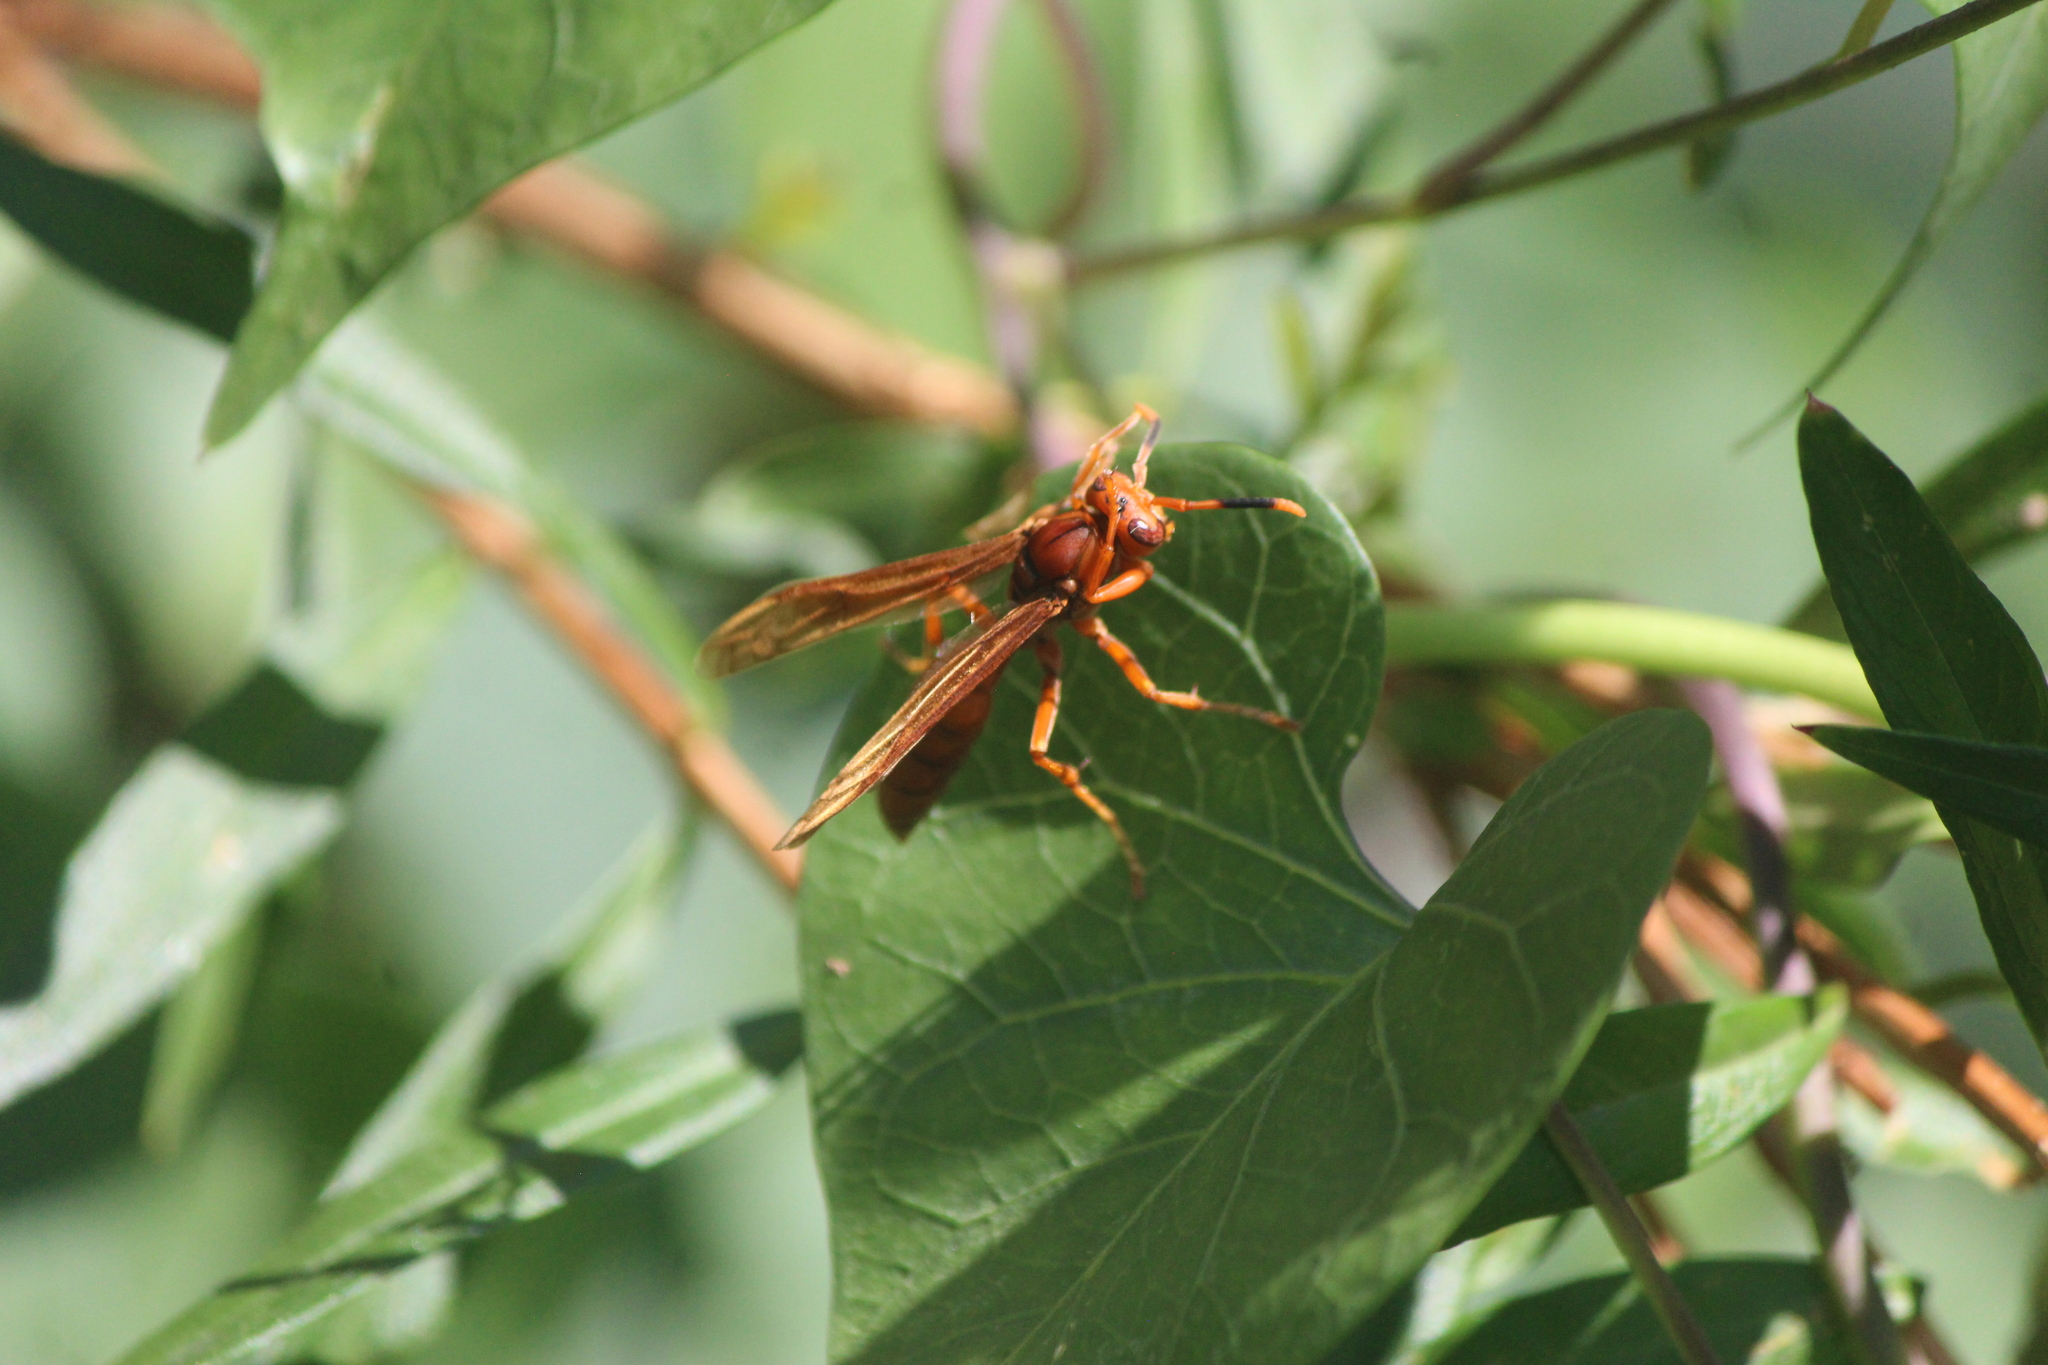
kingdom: Animalia
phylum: Arthropoda
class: Insecta
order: Hymenoptera
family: Eumenidae
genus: Polistes
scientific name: Polistes canadensis
